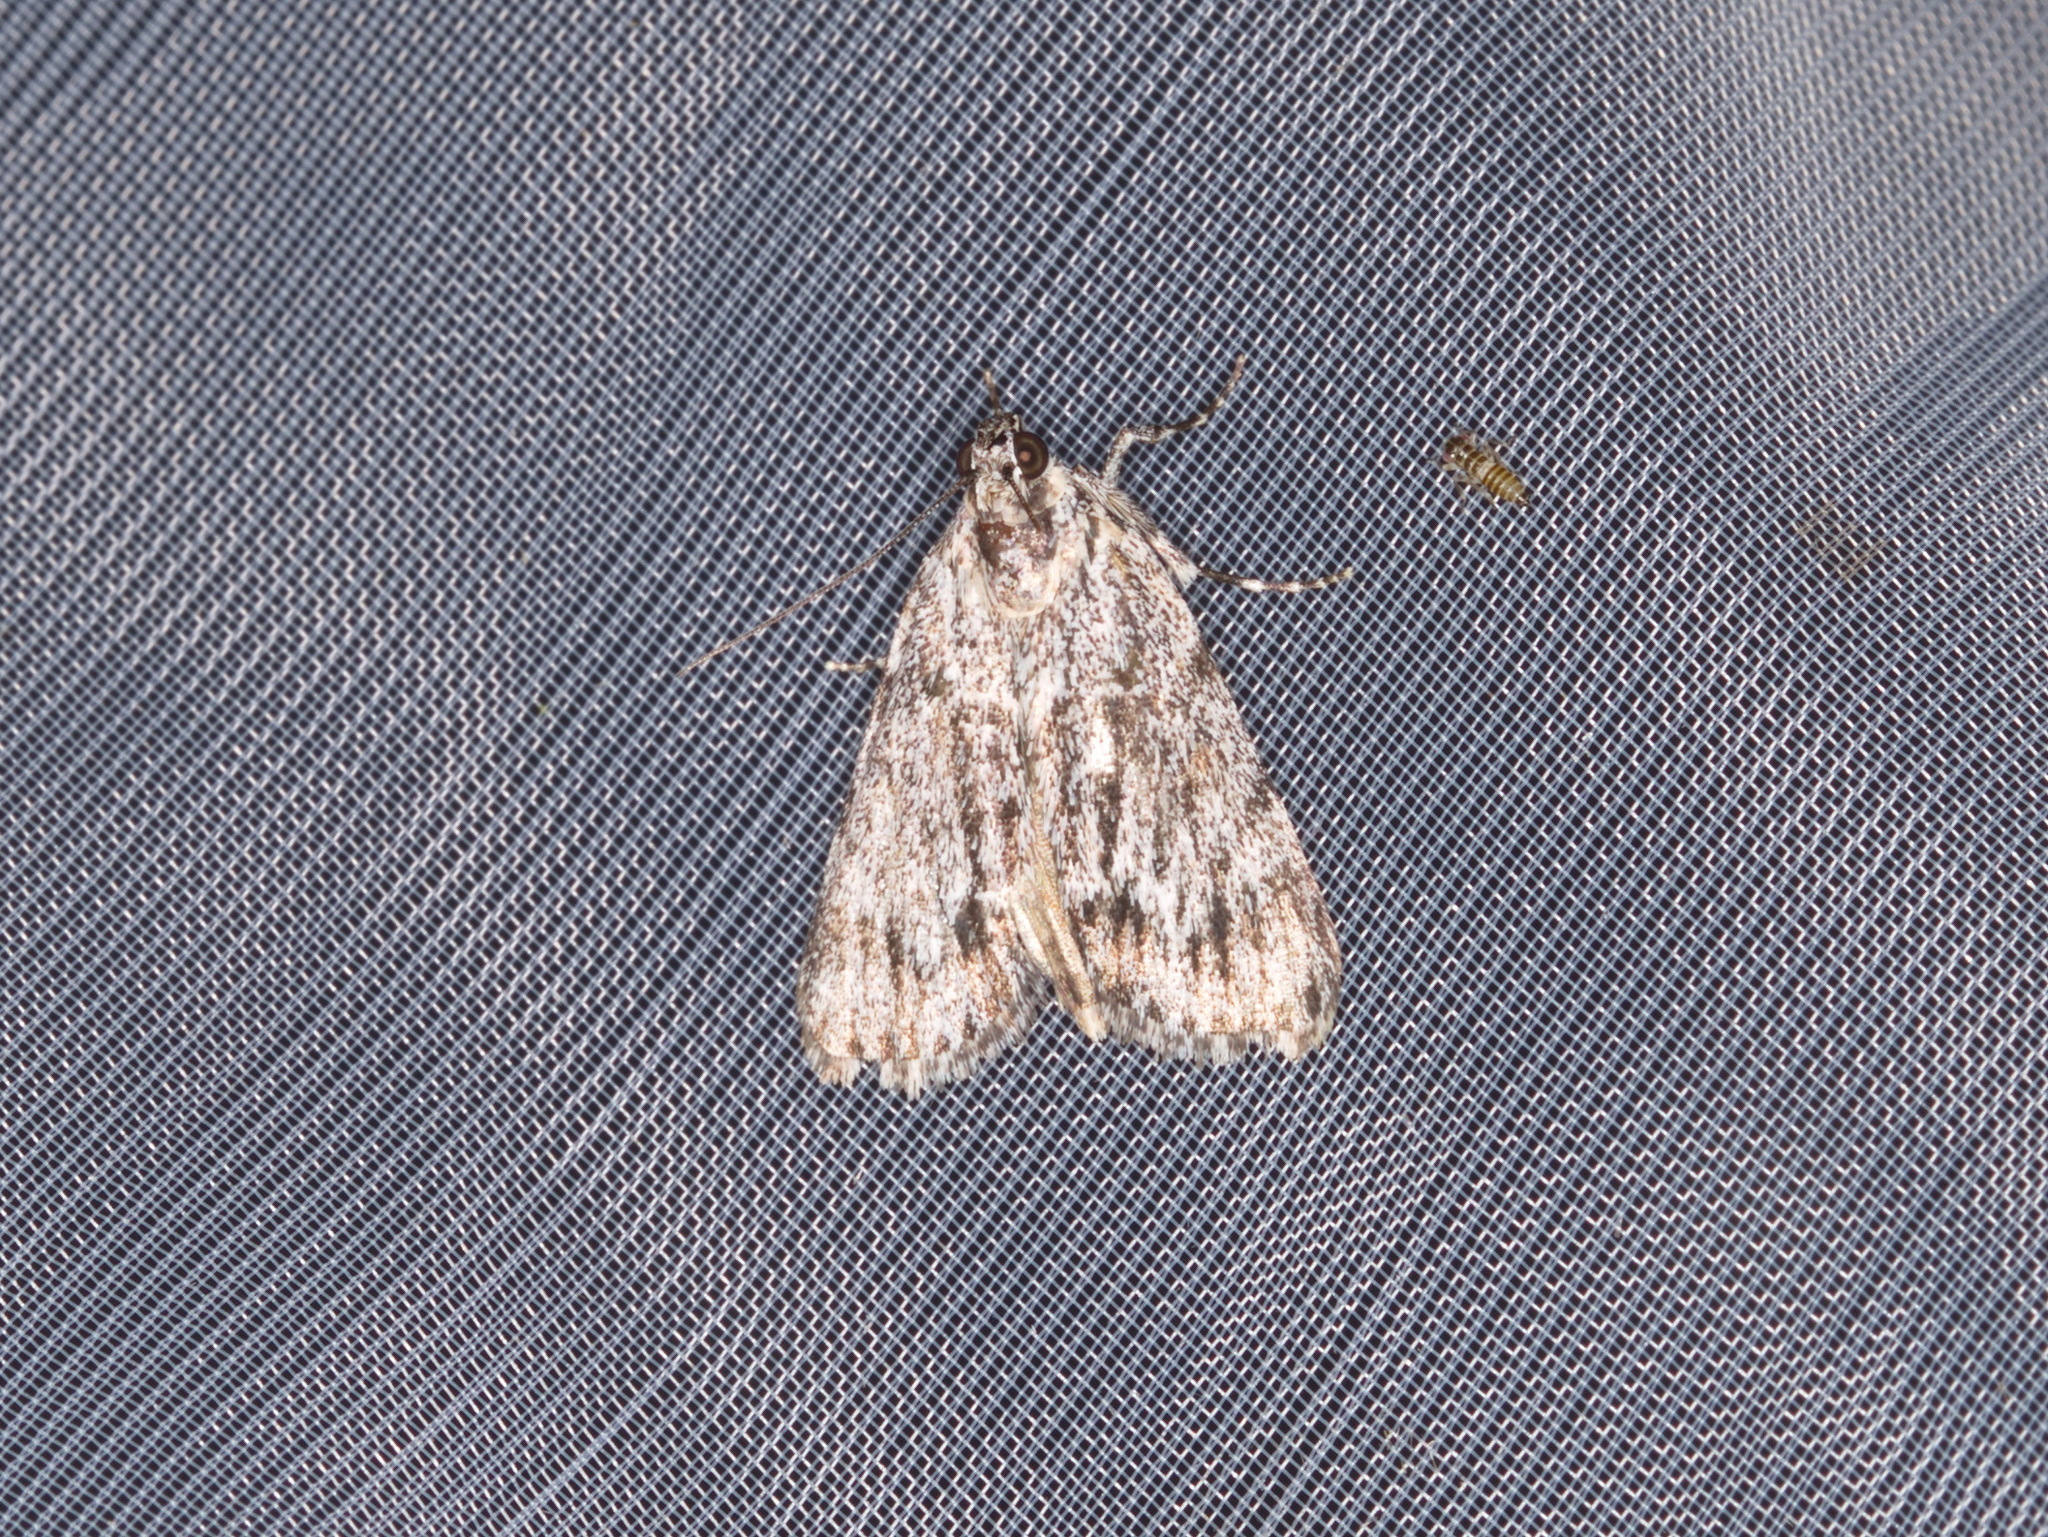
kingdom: Animalia
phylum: Arthropoda
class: Insecta
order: Lepidoptera
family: Pyralidae
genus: Spectrotrota
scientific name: Spectrotrota fimbrialis
